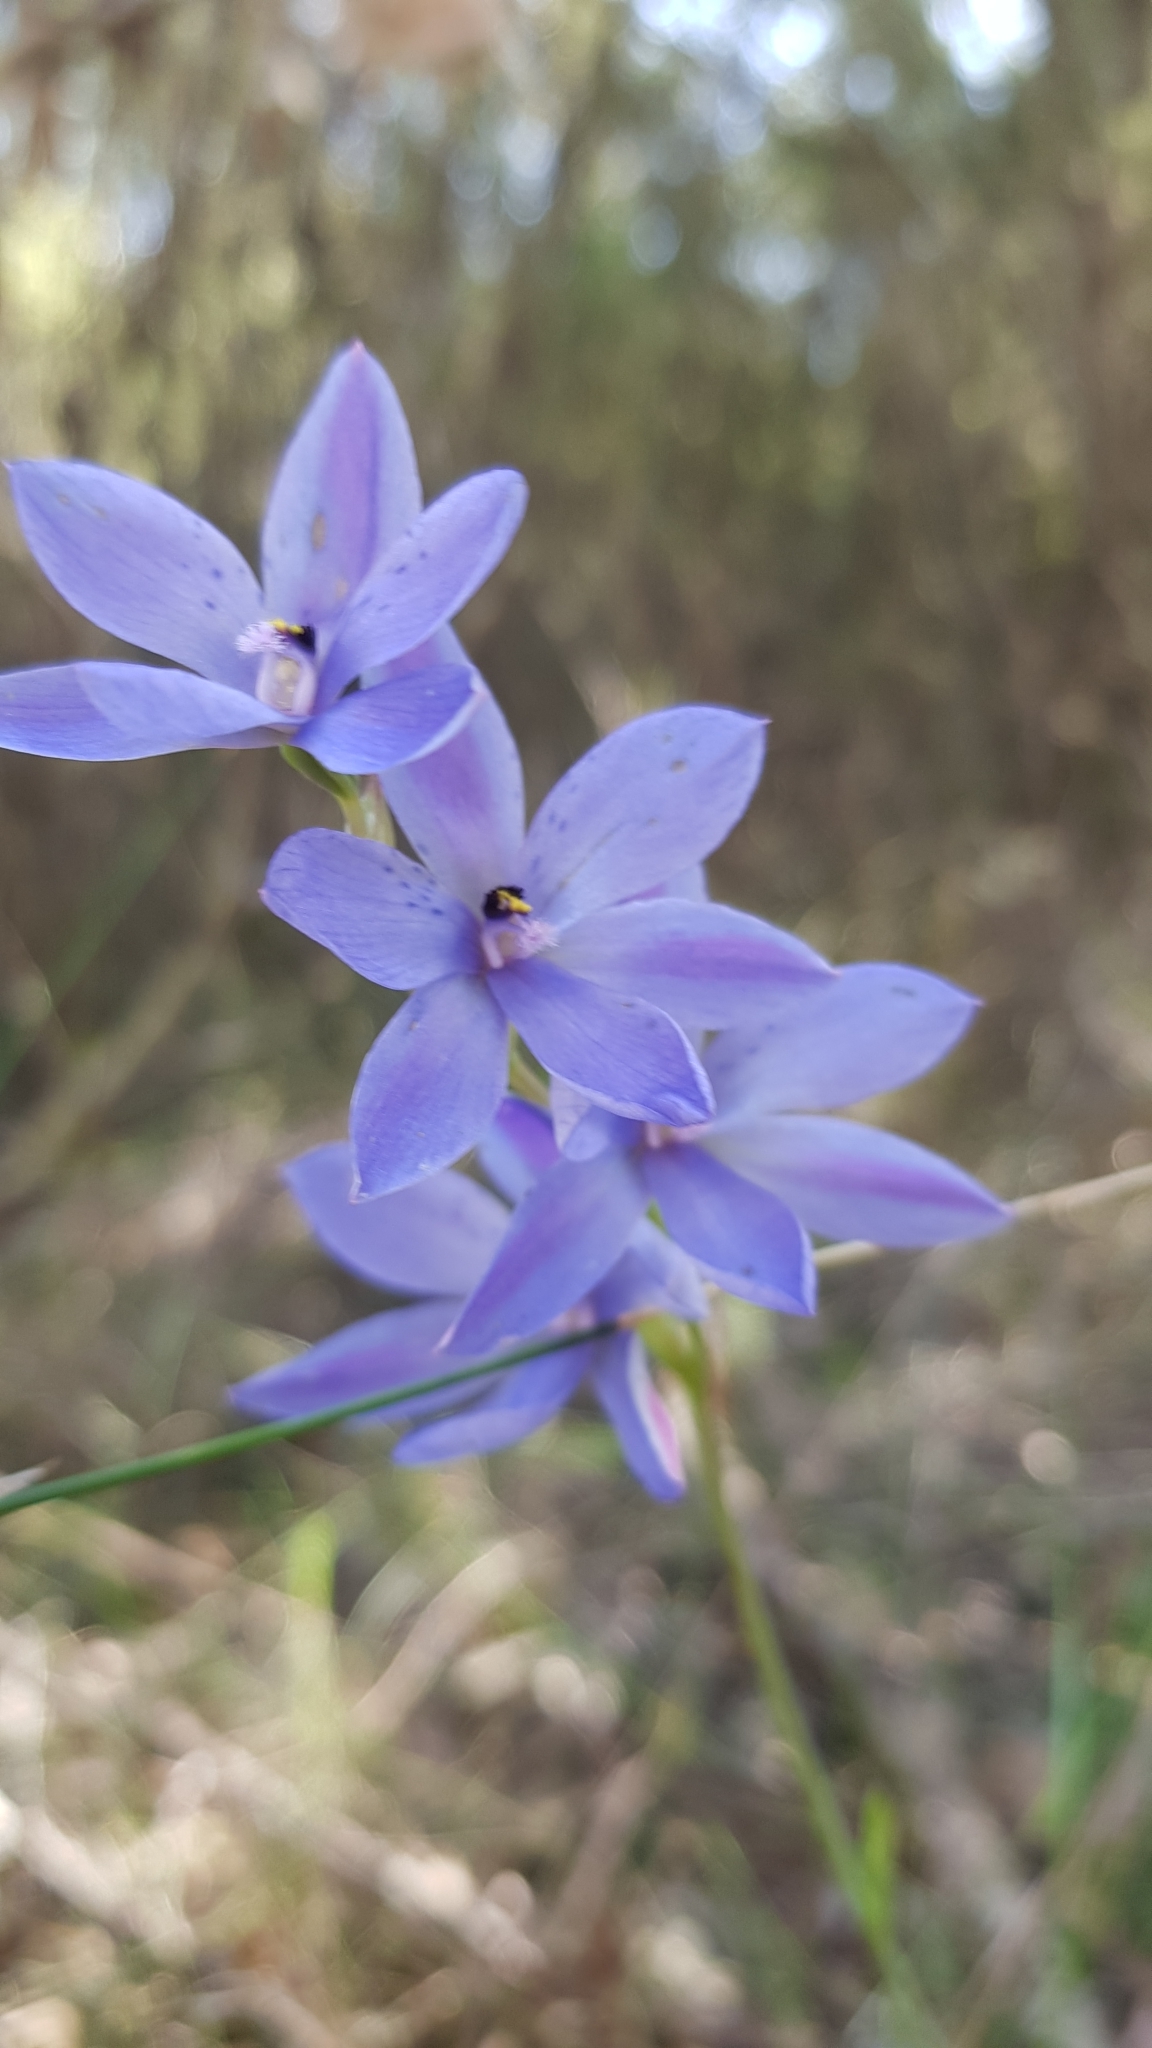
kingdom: Plantae
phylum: Tracheophyta
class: Liliopsida
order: Asparagales
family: Orchidaceae
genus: Thelymitra
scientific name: Thelymitra ixioides
